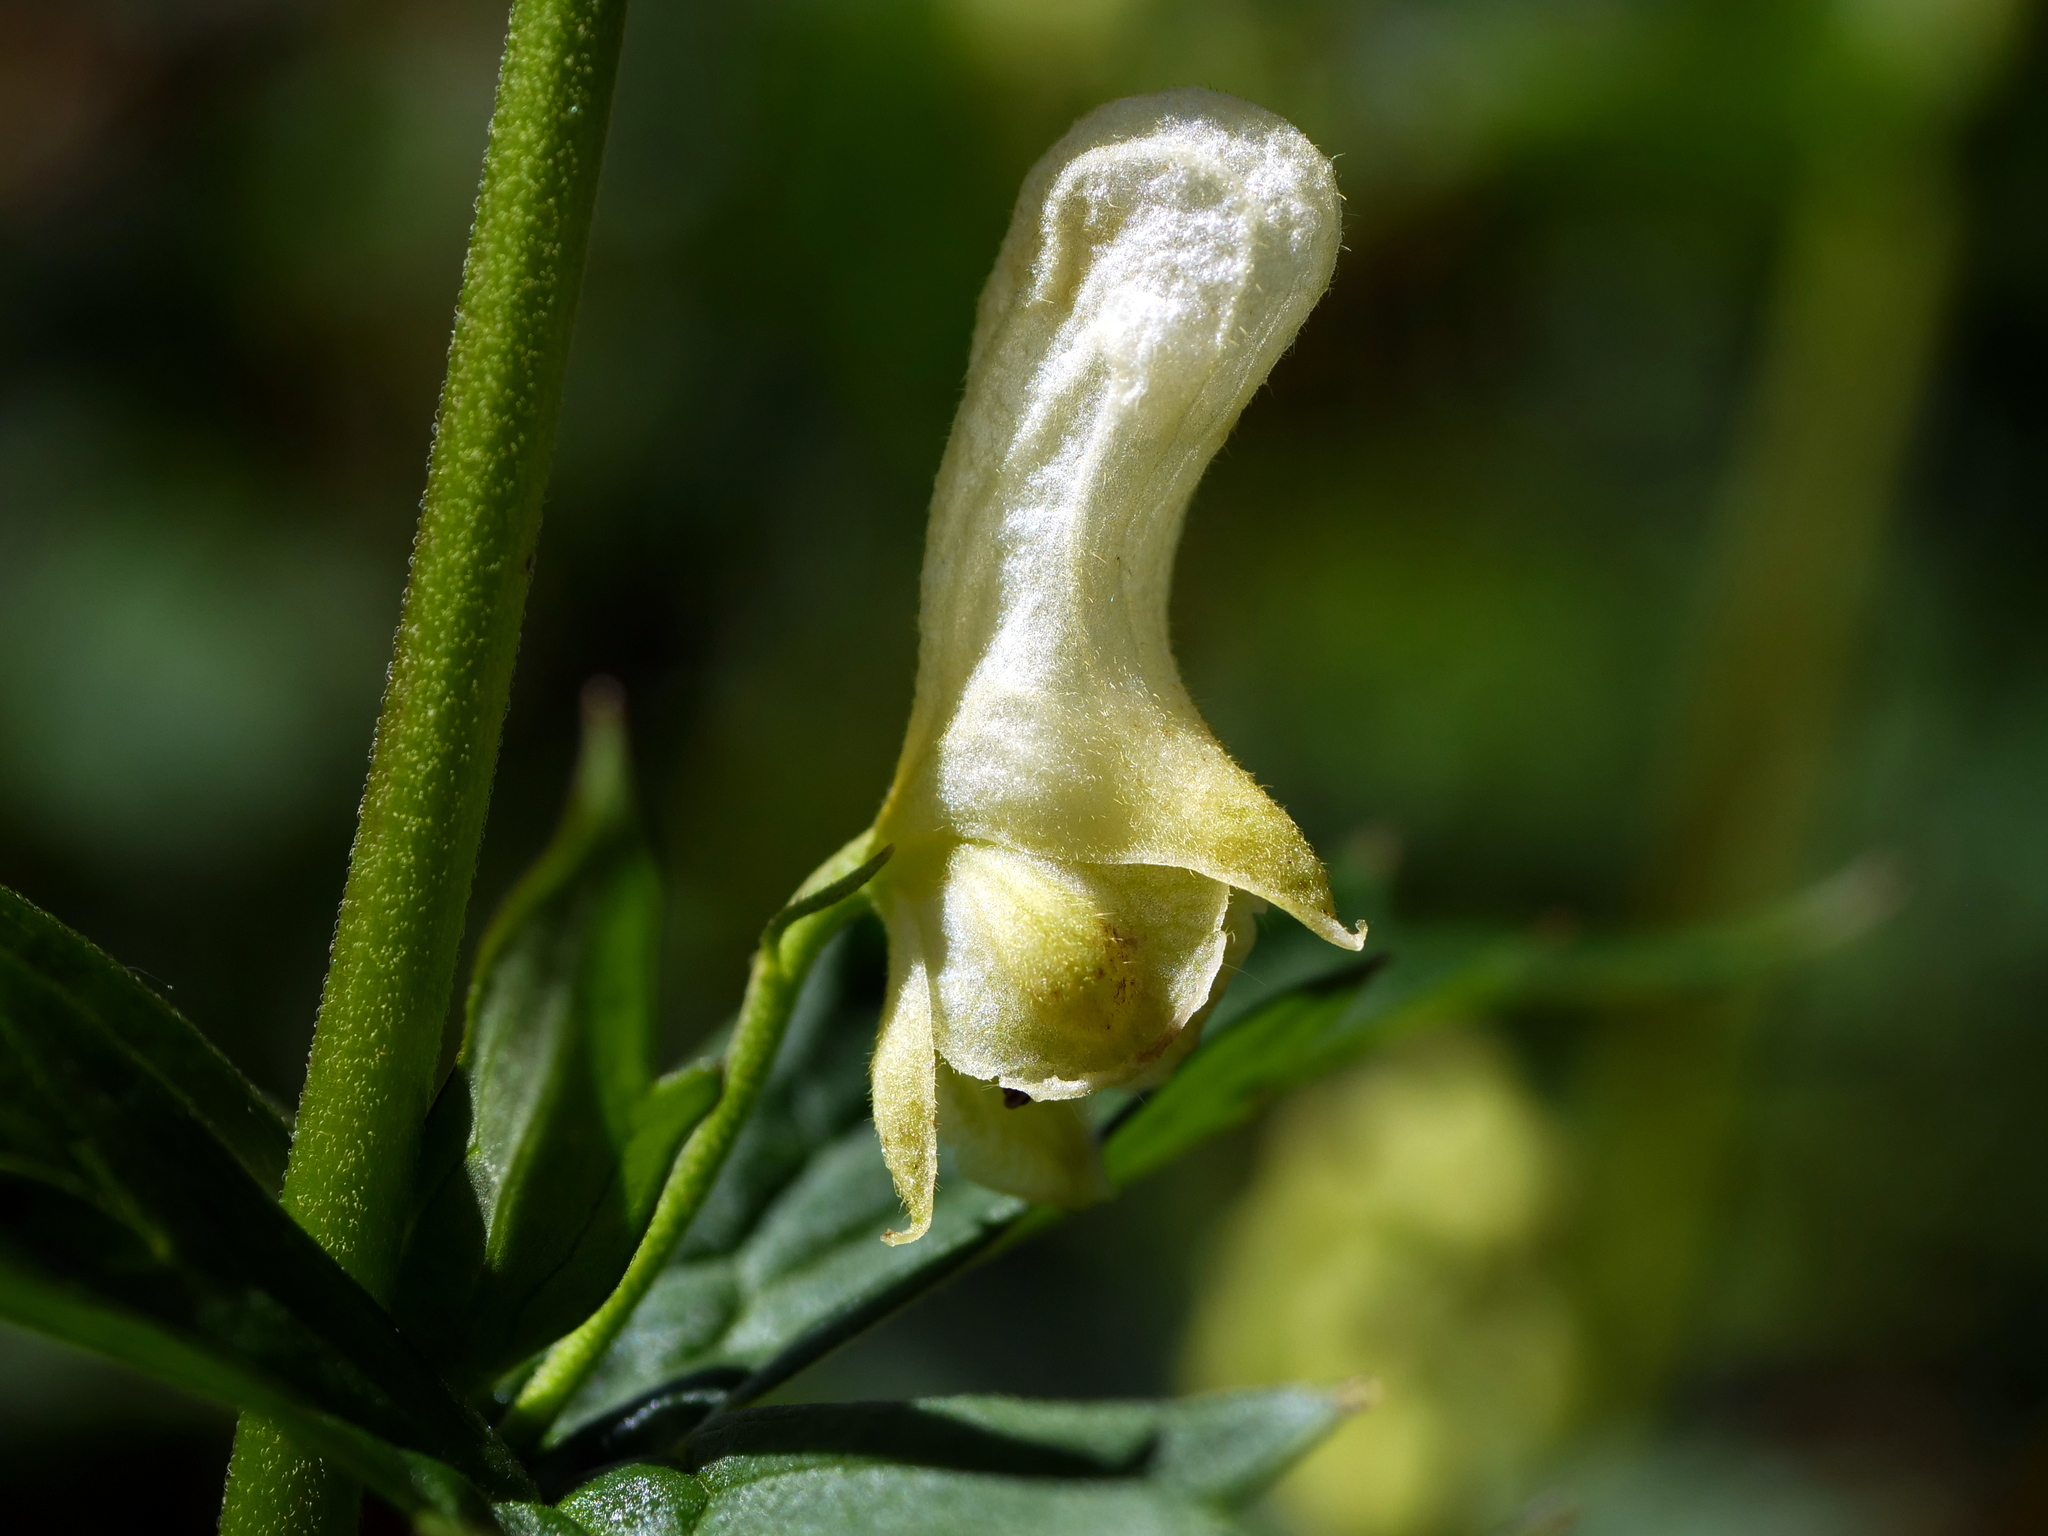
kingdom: Plantae
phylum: Tracheophyta
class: Magnoliopsida
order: Ranunculales
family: Ranunculaceae
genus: Aconitum
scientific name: Aconitum lycoctonum
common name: Wolf's-bane
